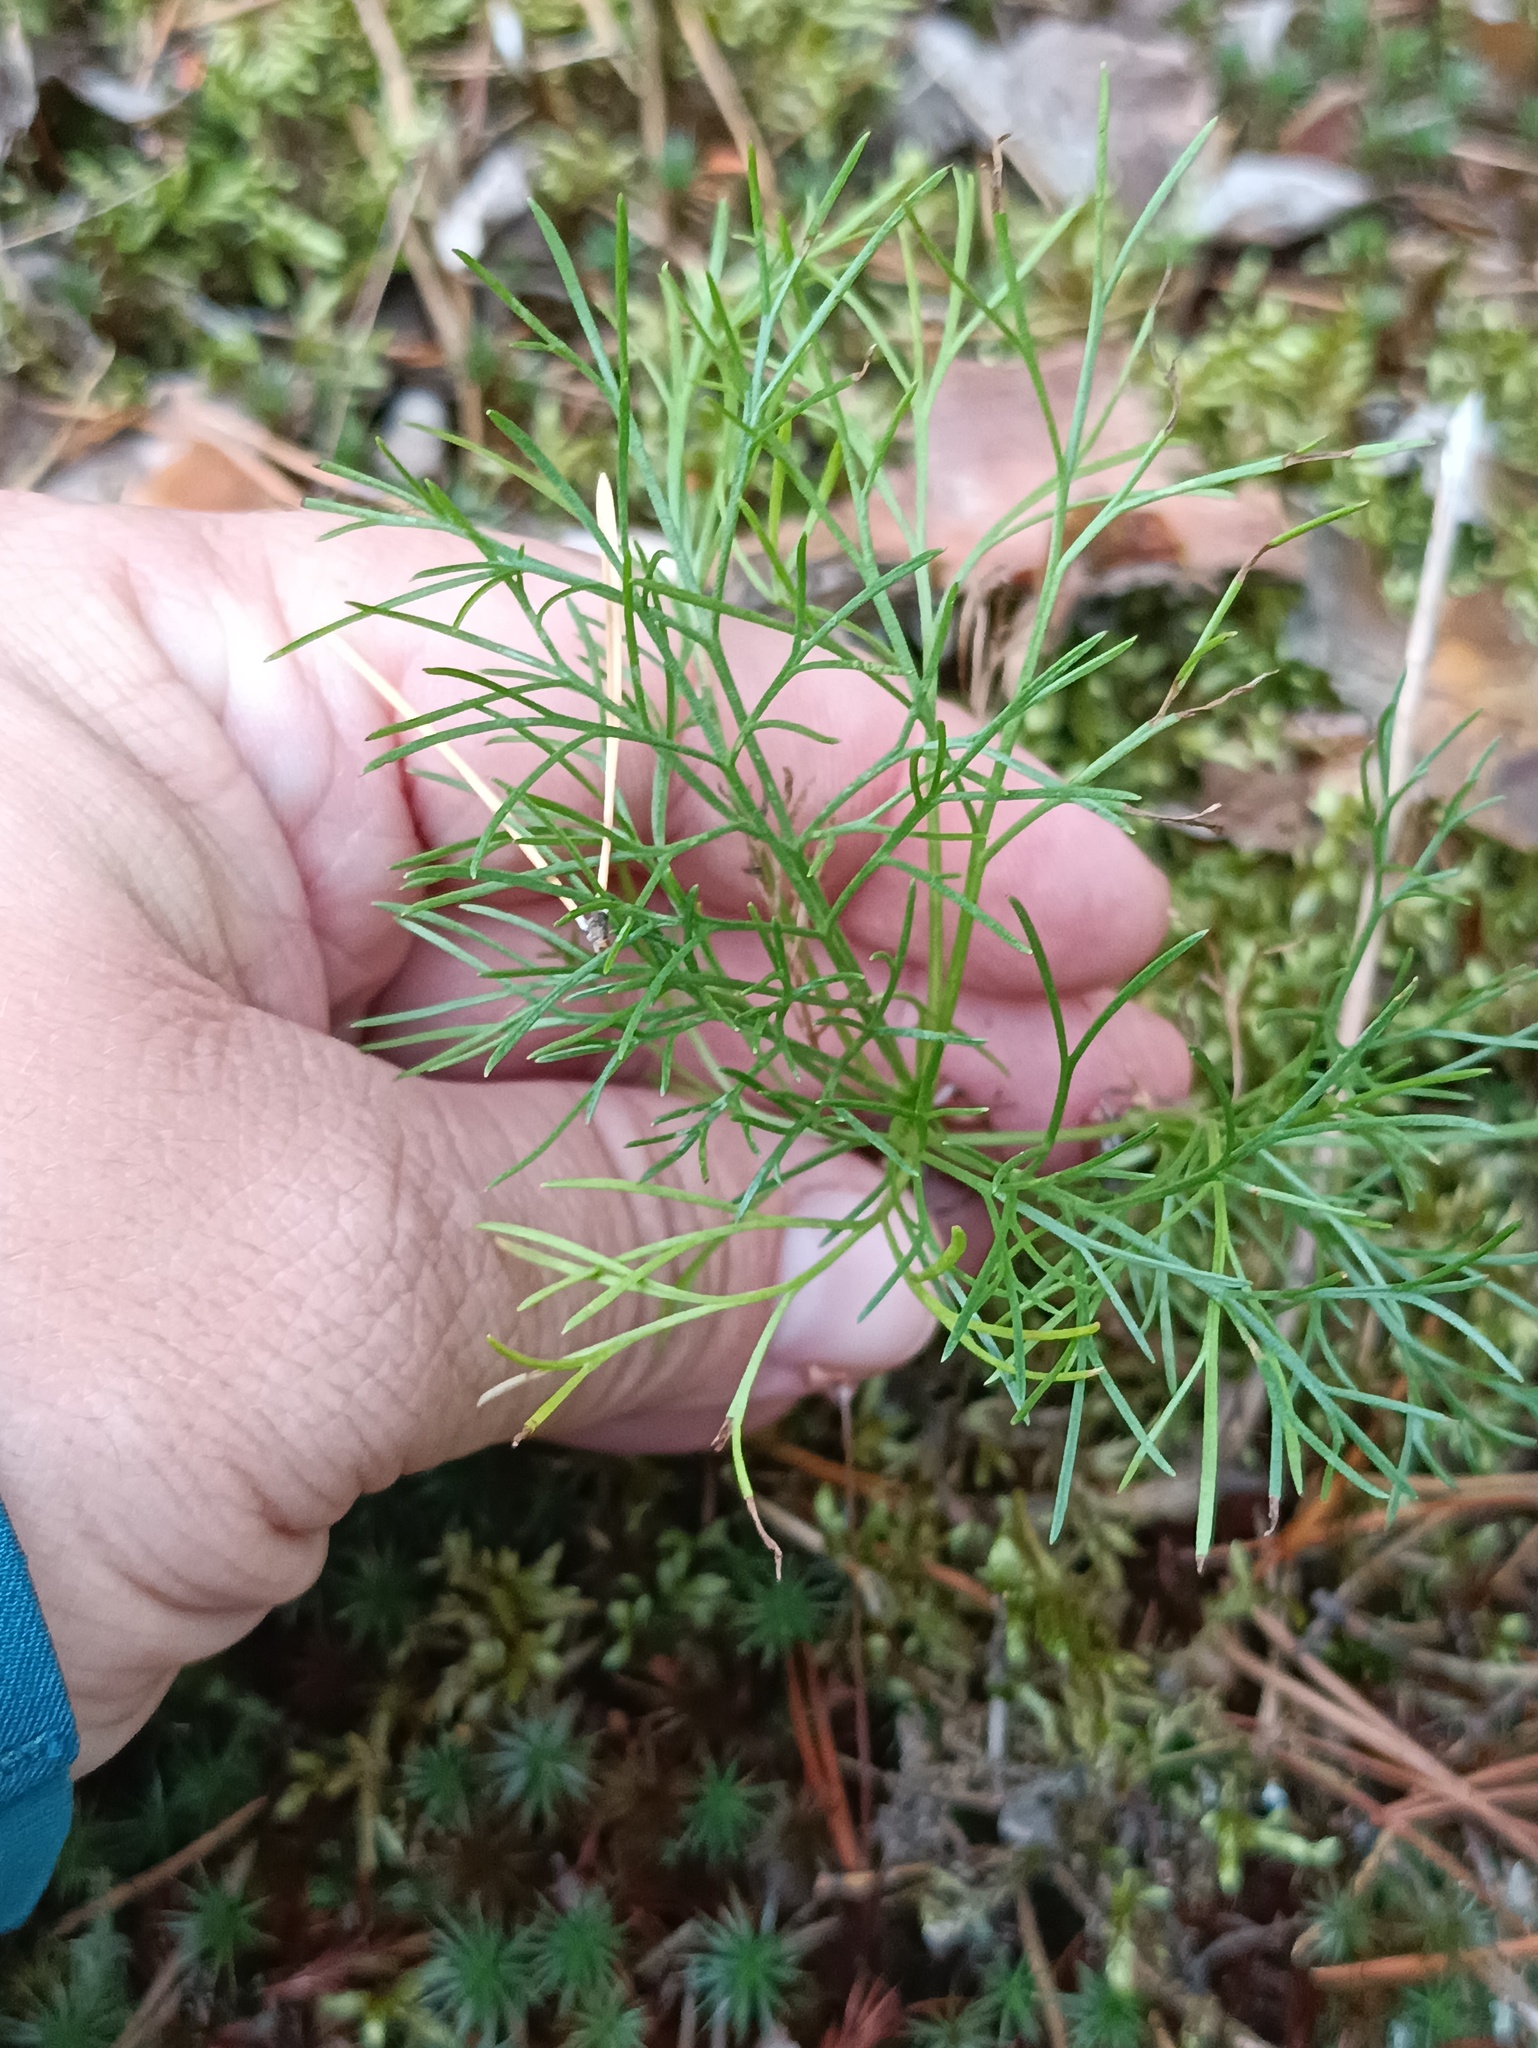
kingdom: Plantae
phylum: Tracheophyta
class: Magnoliopsida
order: Asterales
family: Asteraceae
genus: Artemisia
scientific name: Artemisia campestris
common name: Field wormwood
